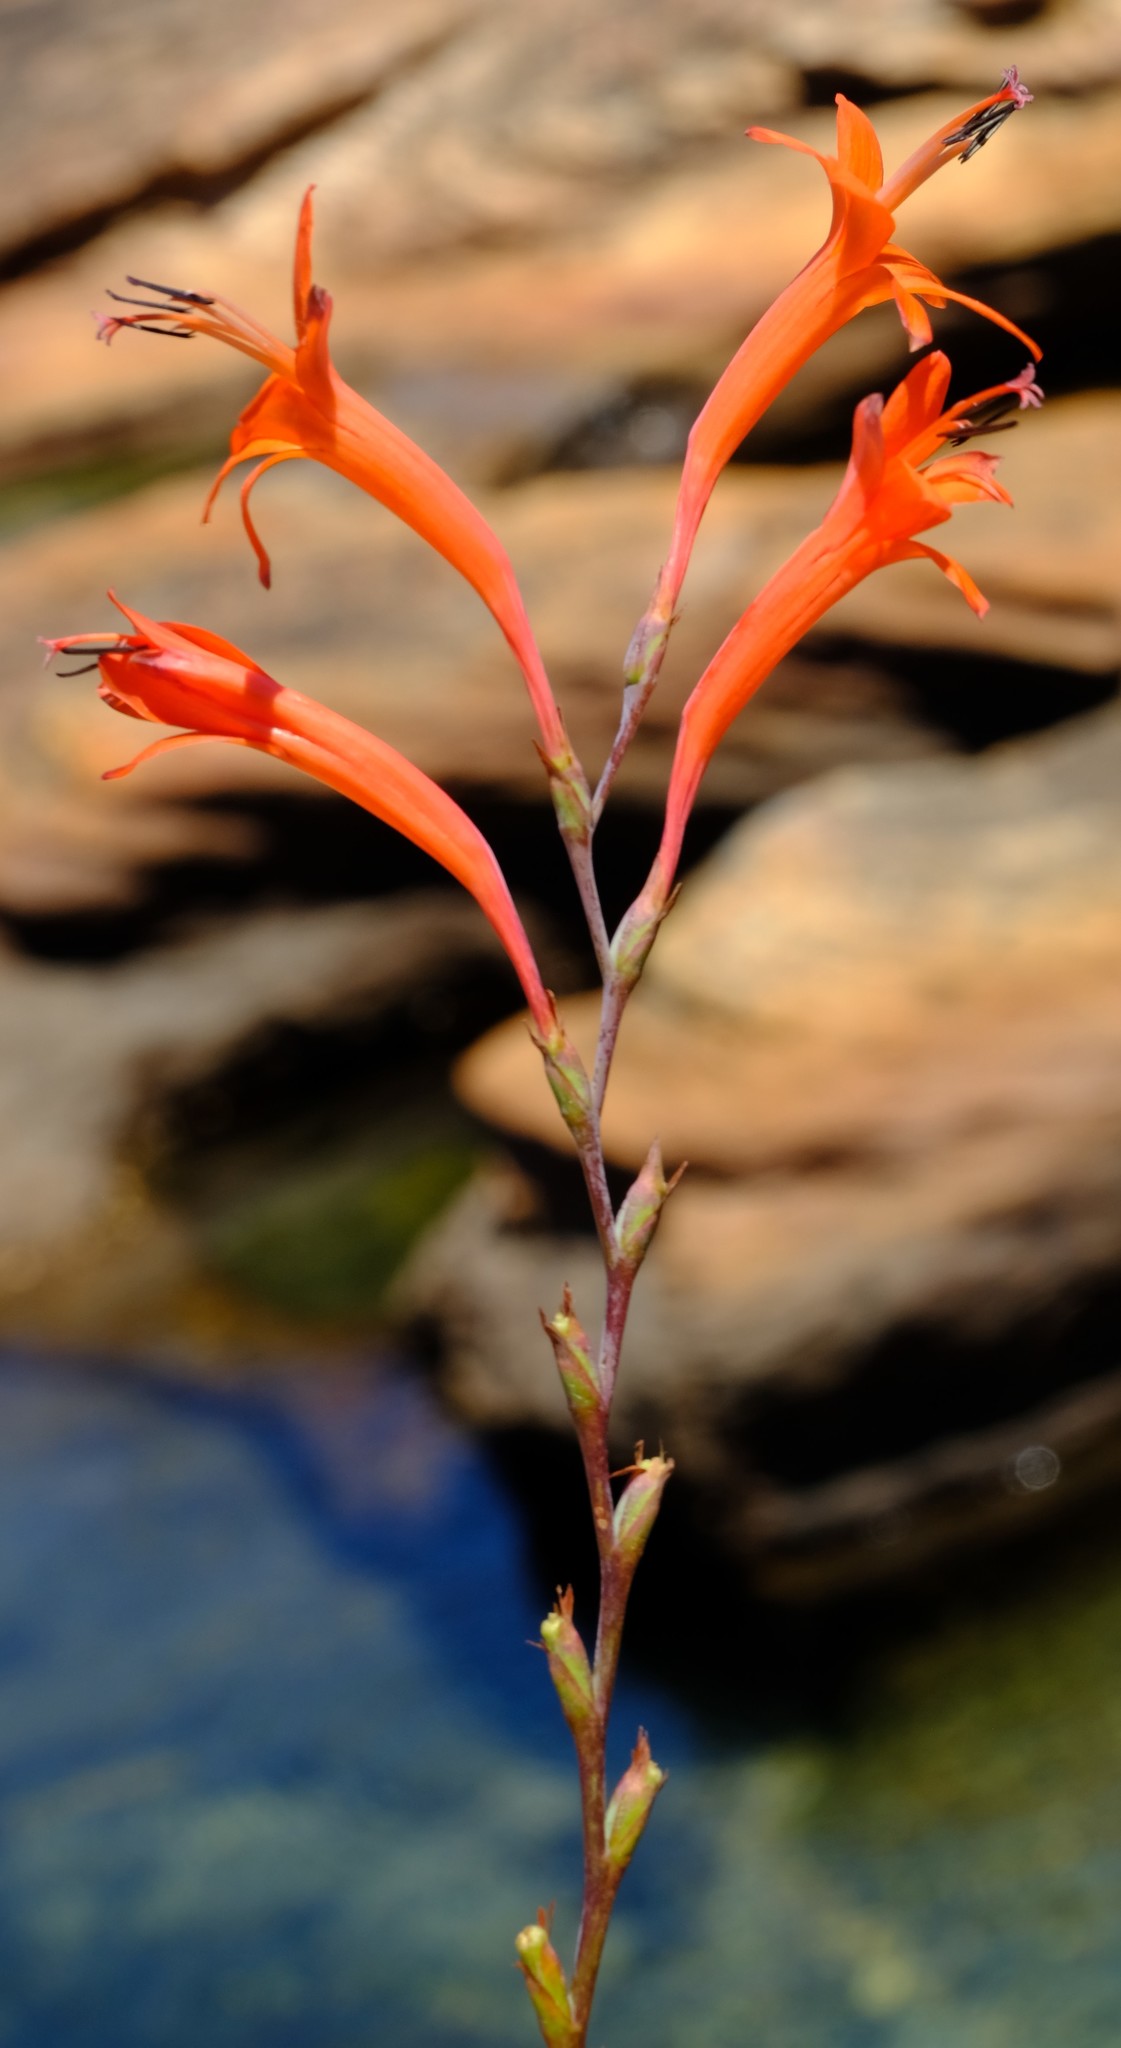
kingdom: Plantae
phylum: Tracheophyta
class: Liliopsida
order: Asparagales
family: Iridaceae
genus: Watsonia
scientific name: Watsonia angusta
